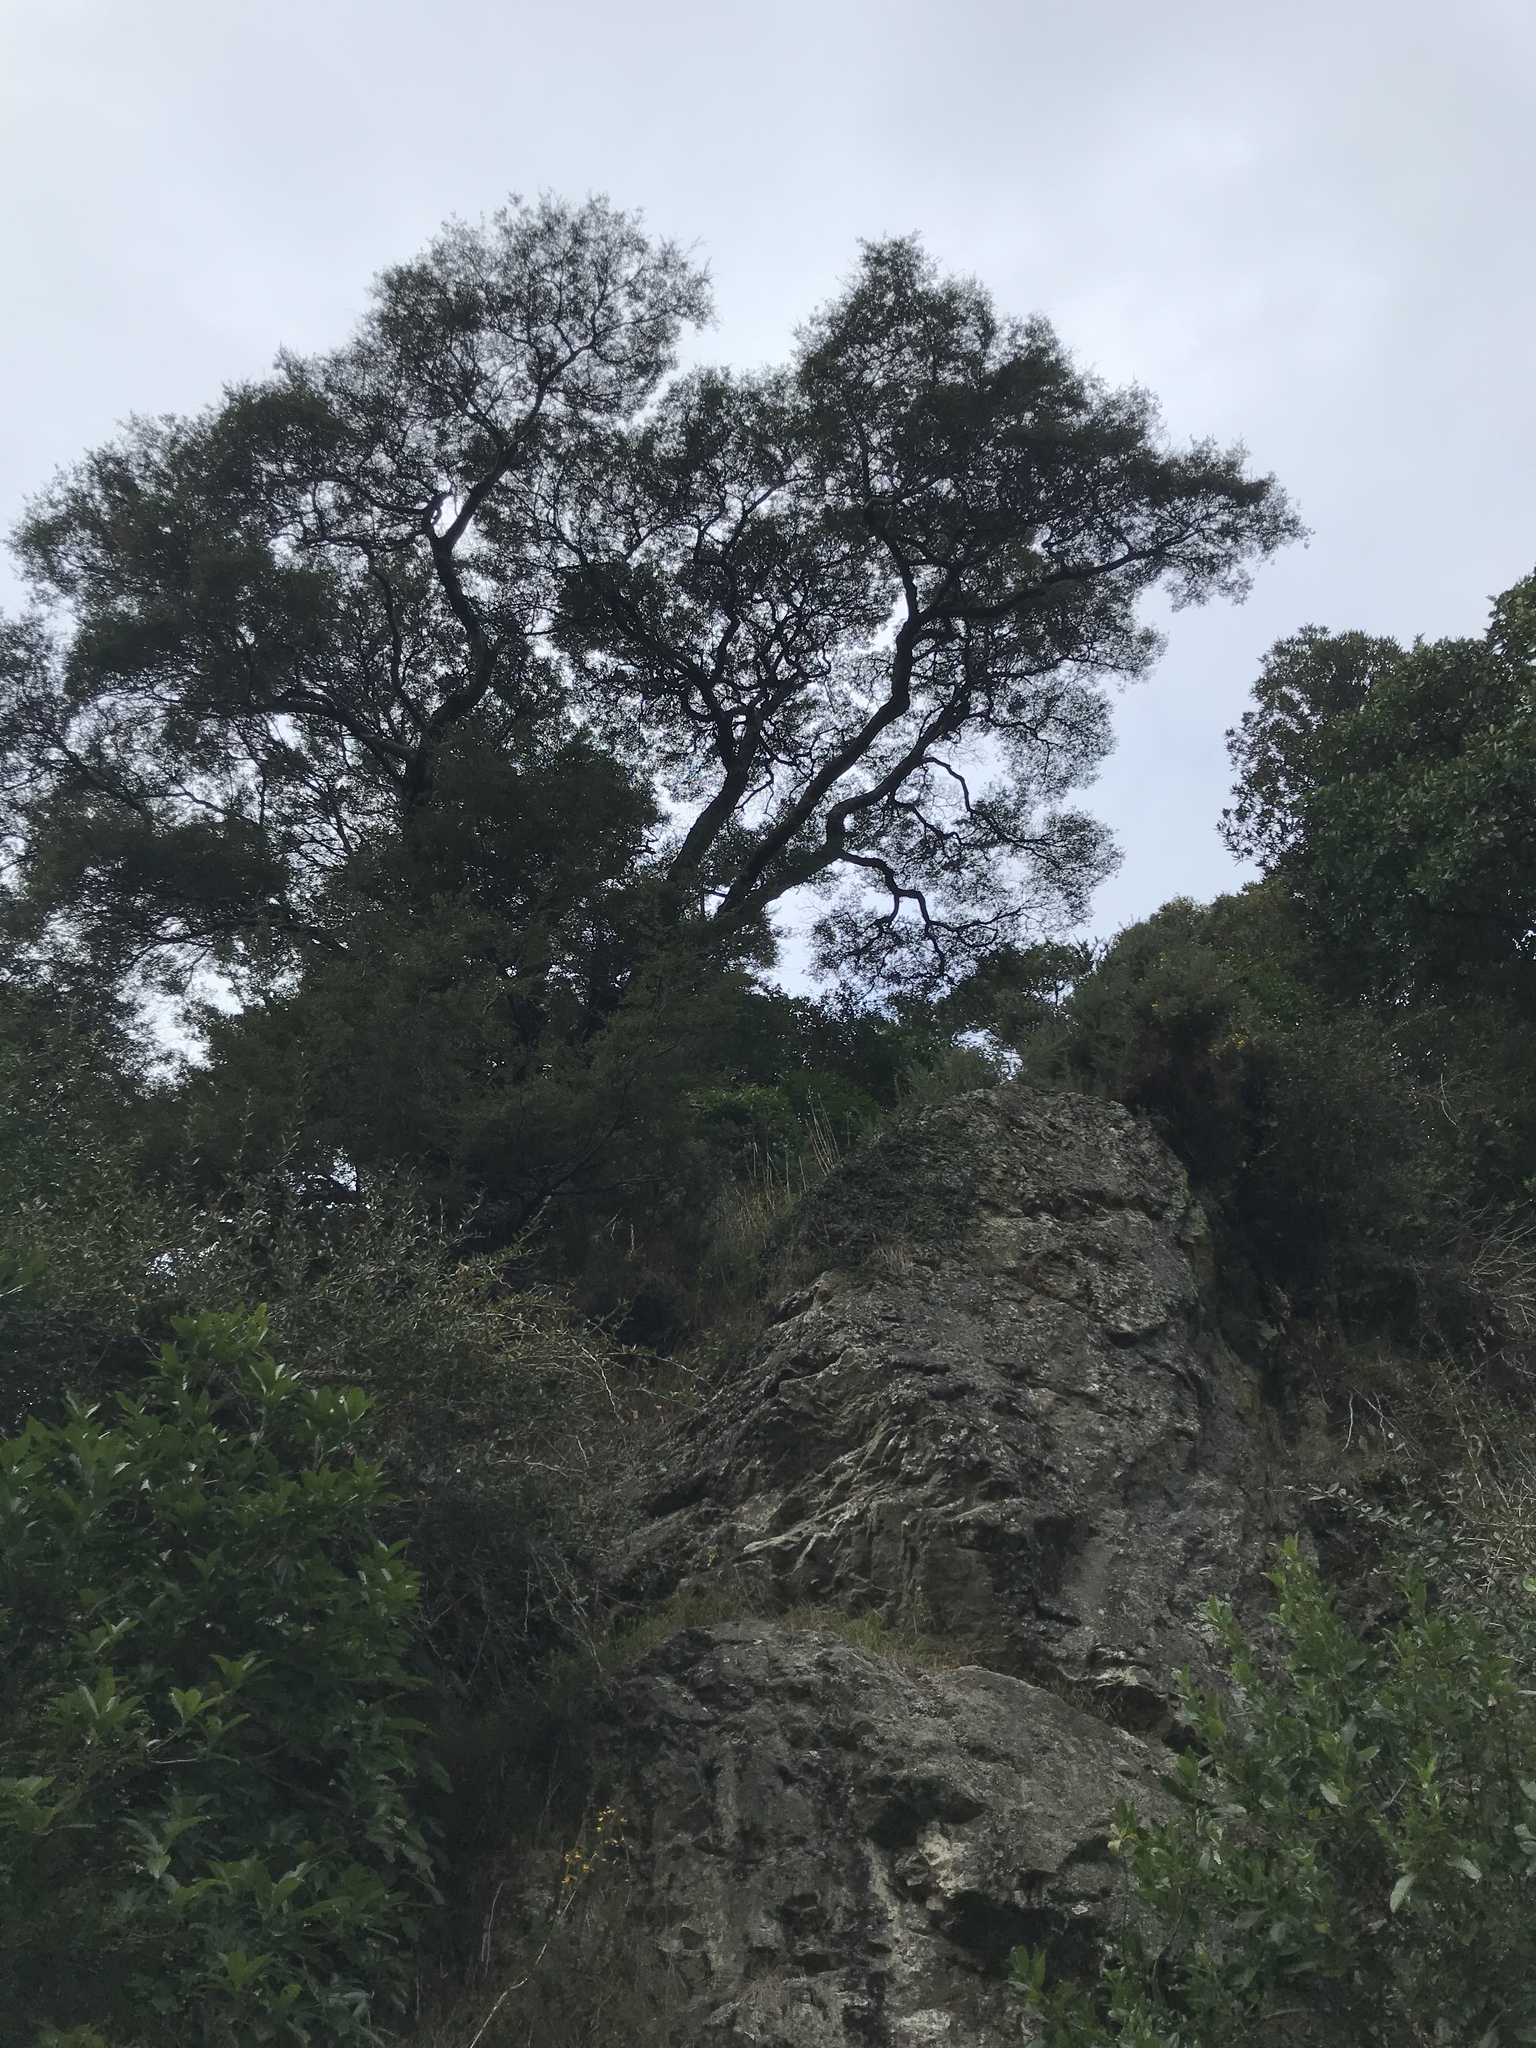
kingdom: Plantae
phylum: Tracheophyta
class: Magnoliopsida
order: Fagales
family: Nothofagaceae
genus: Nothofagus
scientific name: Nothofagus solandri
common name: Black beech
